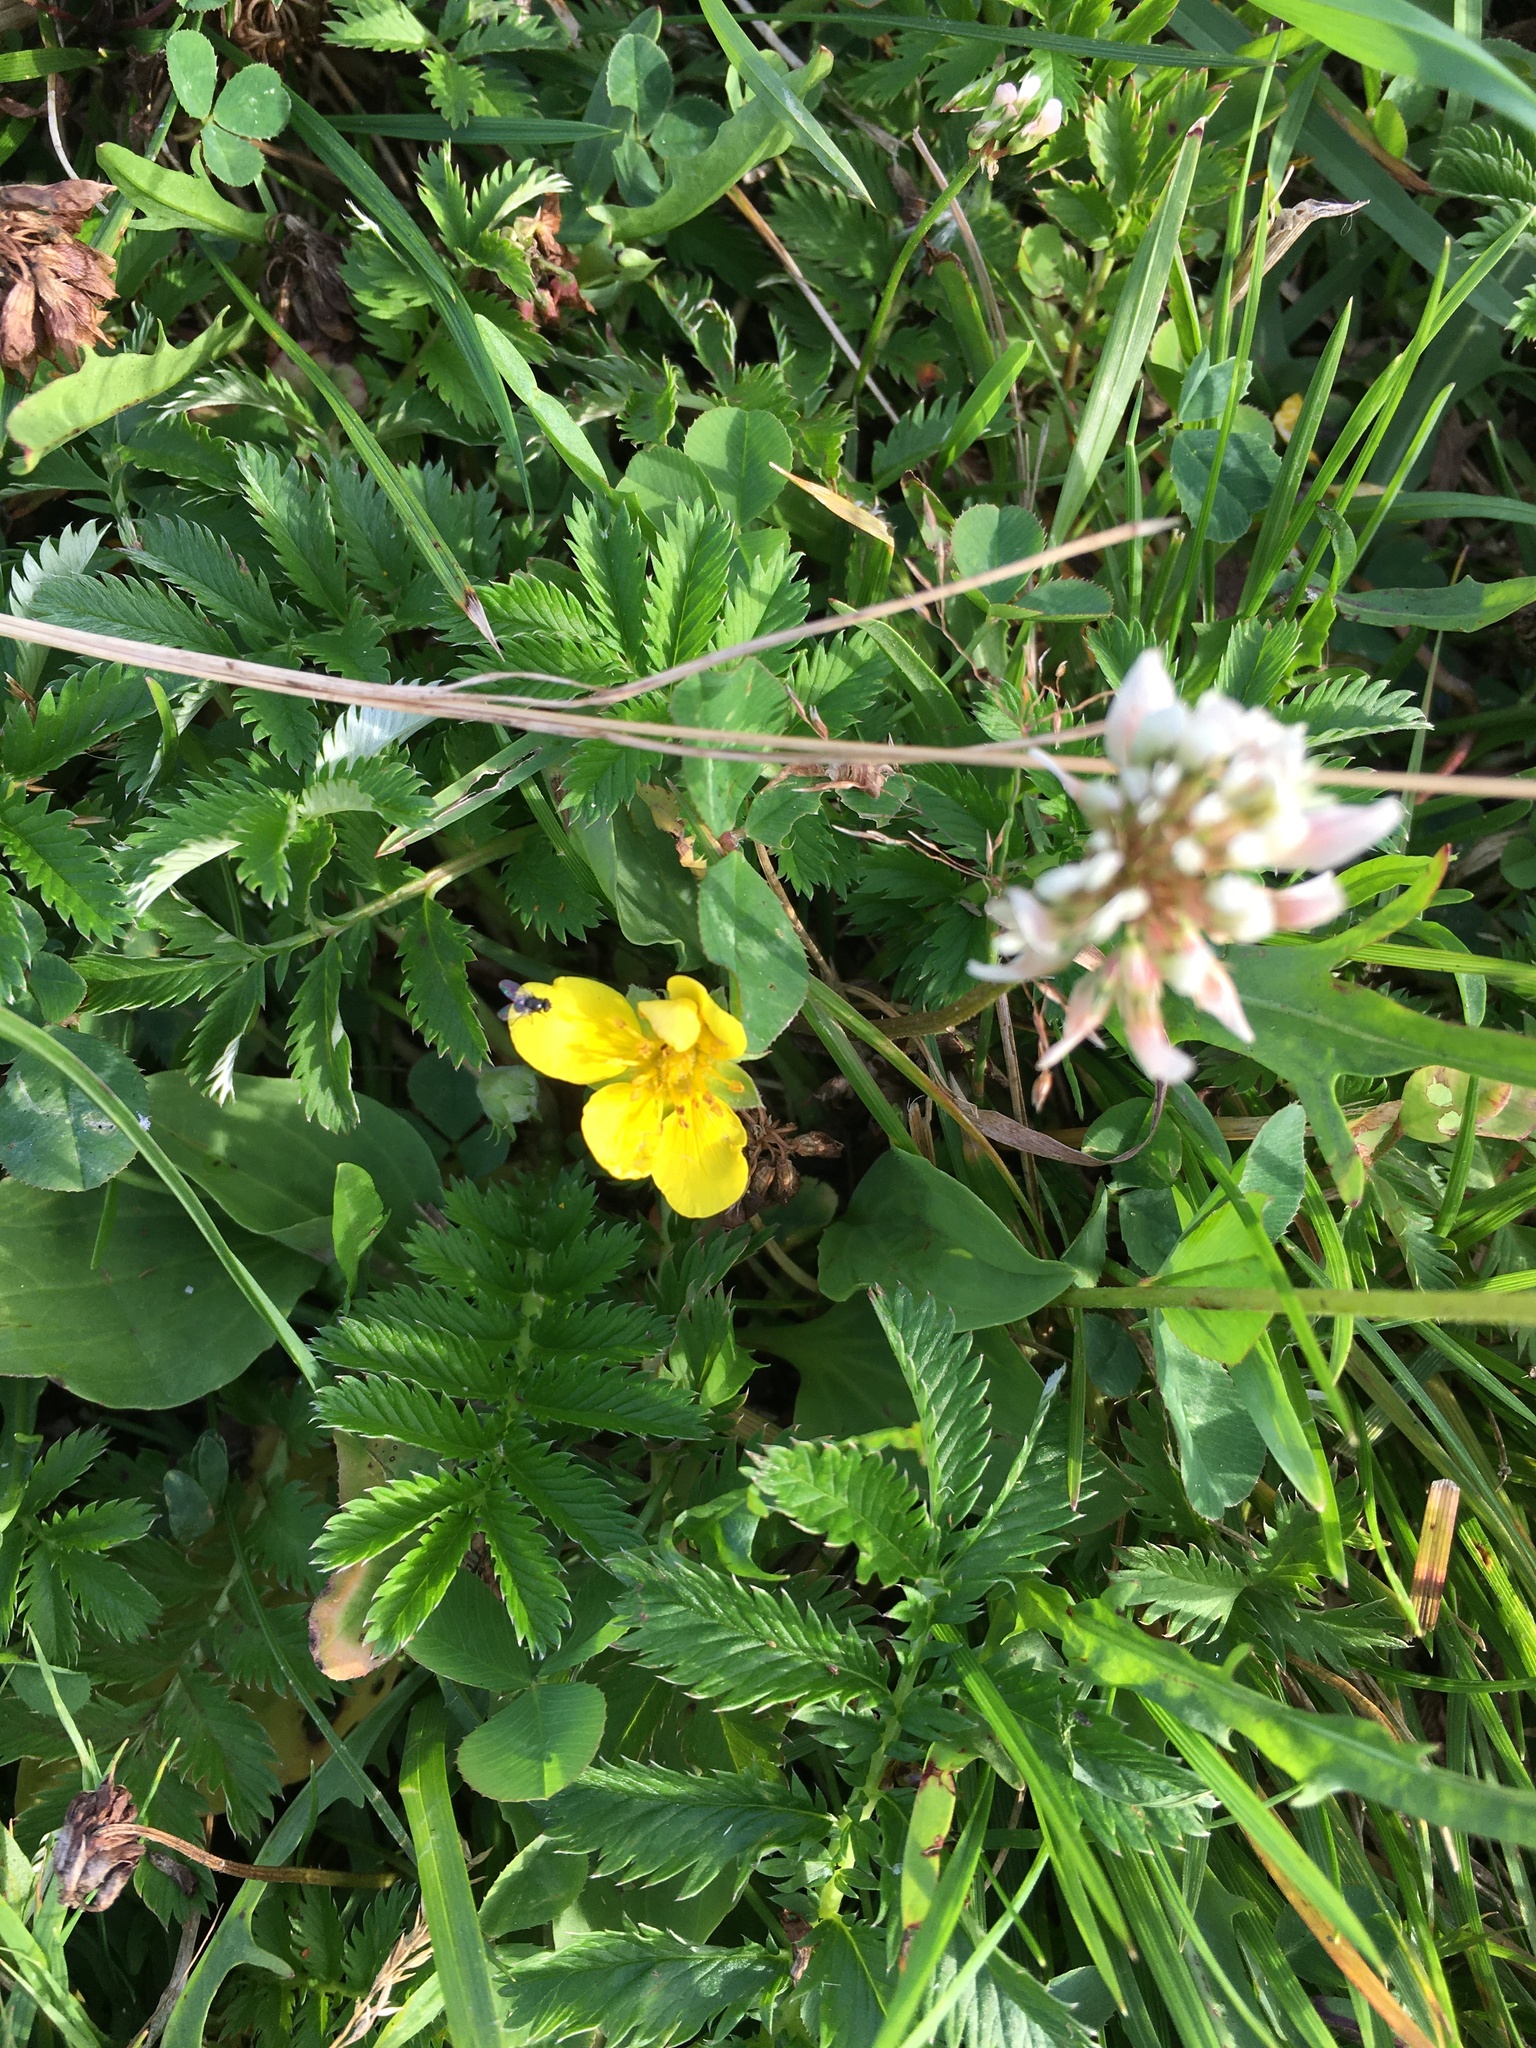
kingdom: Plantae
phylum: Tracheophyta
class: Magnoliopsida
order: Rosales
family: Rosaceae
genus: Argentina
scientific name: Argentina anserina
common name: Common silverweed
